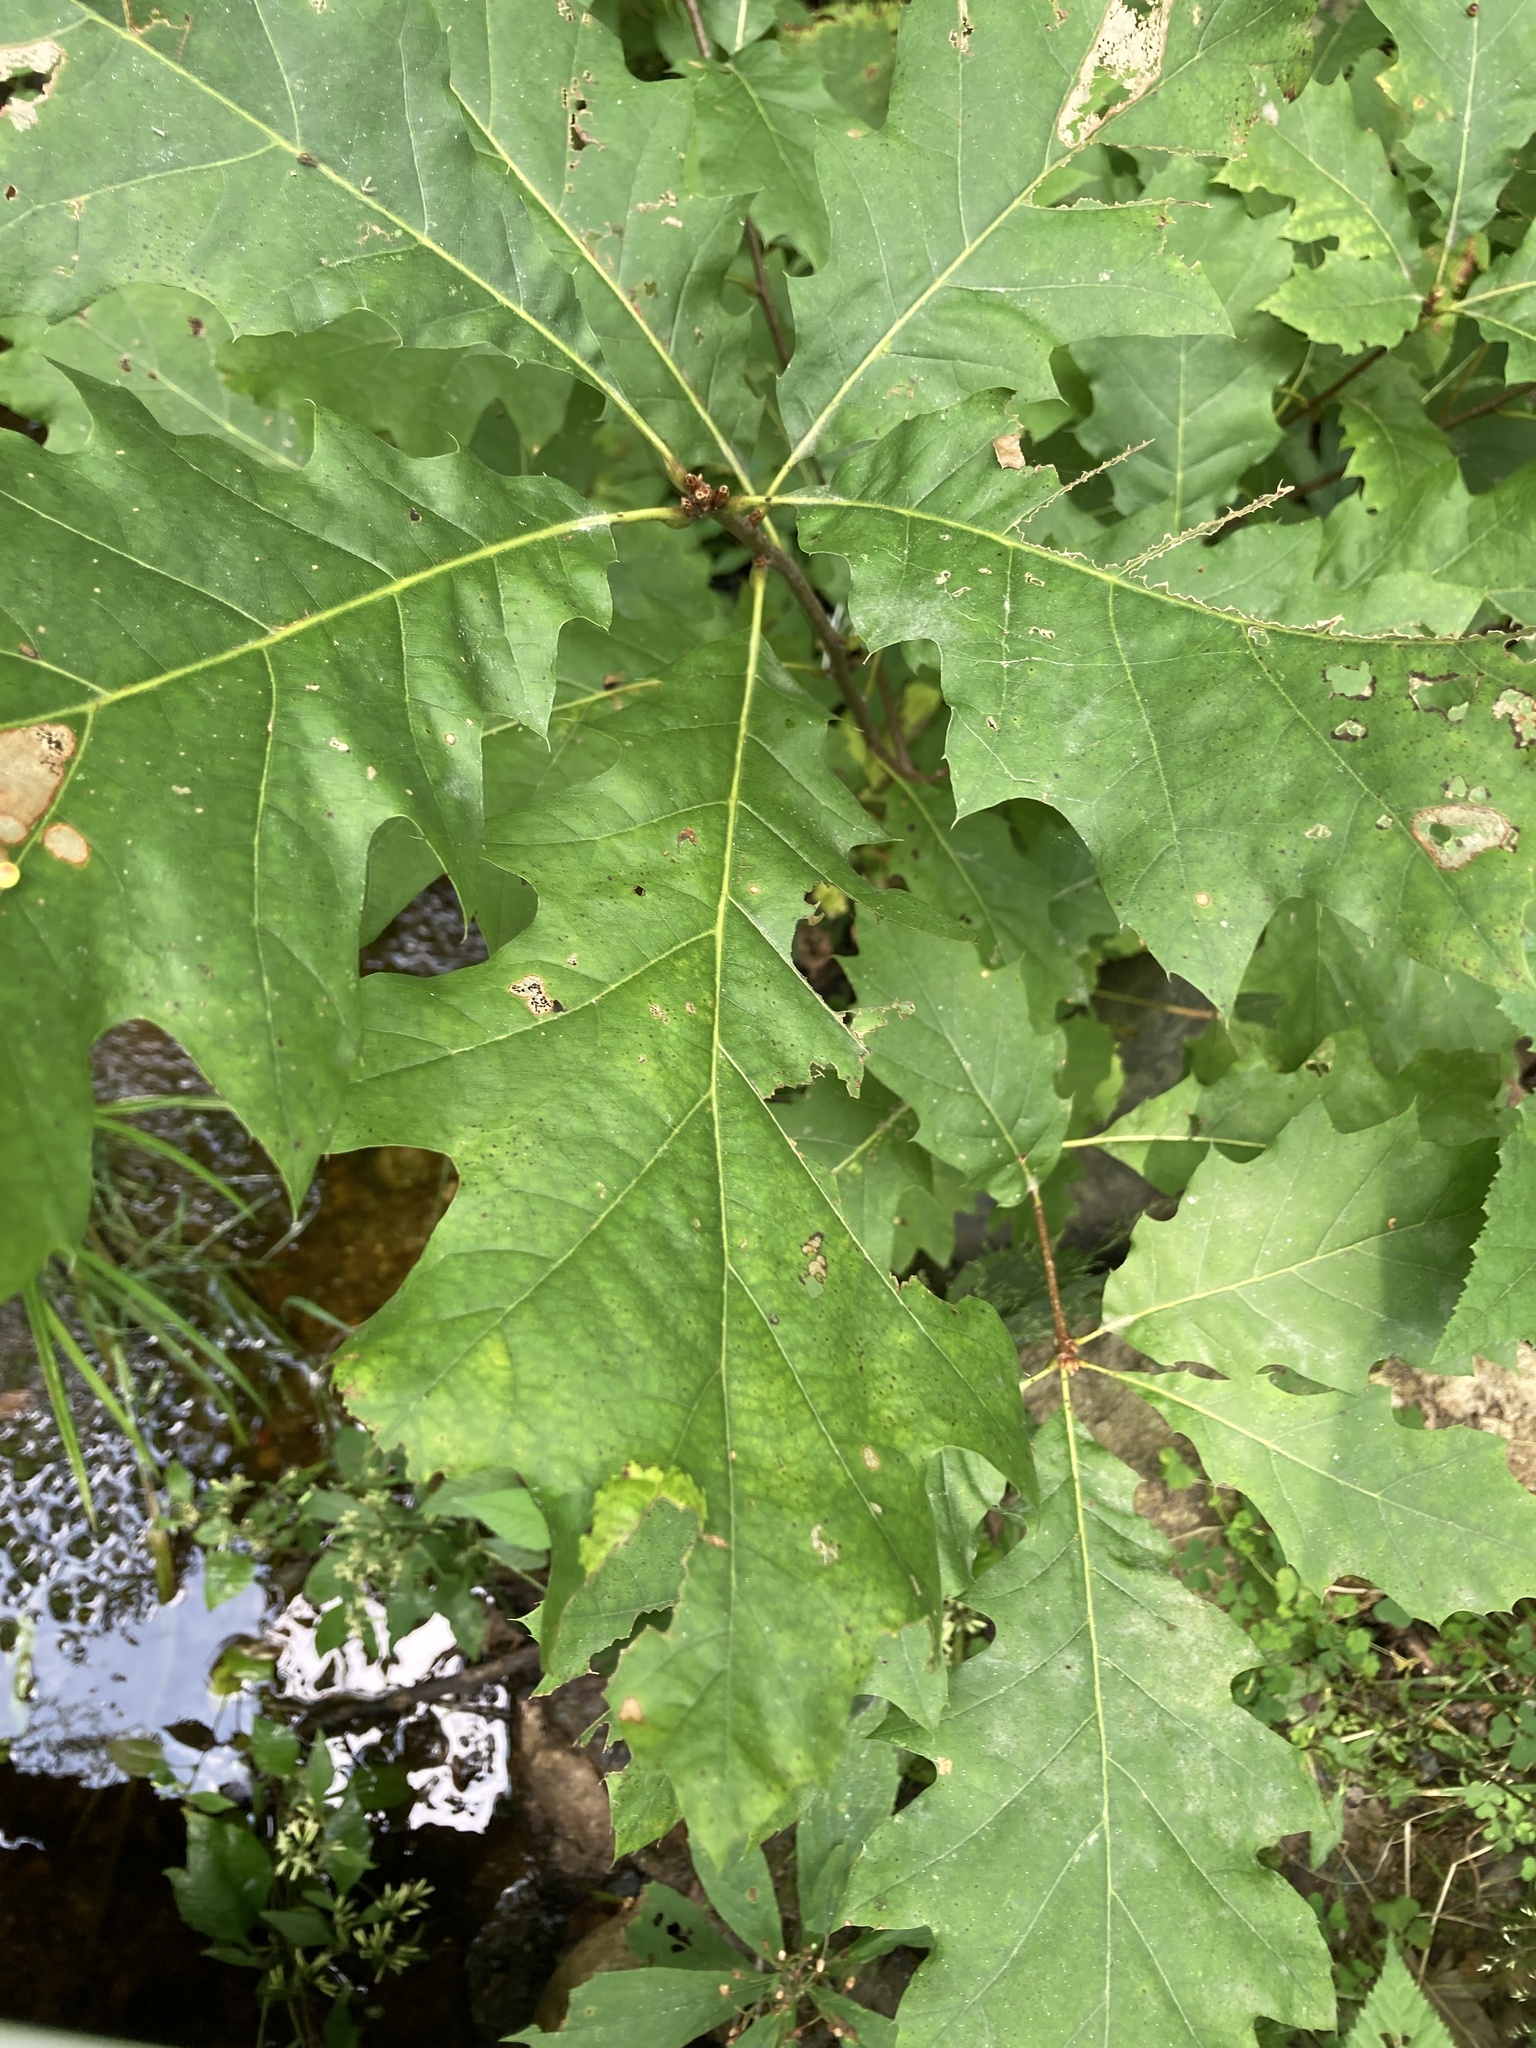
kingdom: Plantae
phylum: Tracheophyta
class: Magnoliopsida
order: Fagales
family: Fagaceae
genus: Quercus
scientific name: Quercus rubra
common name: Red oak
